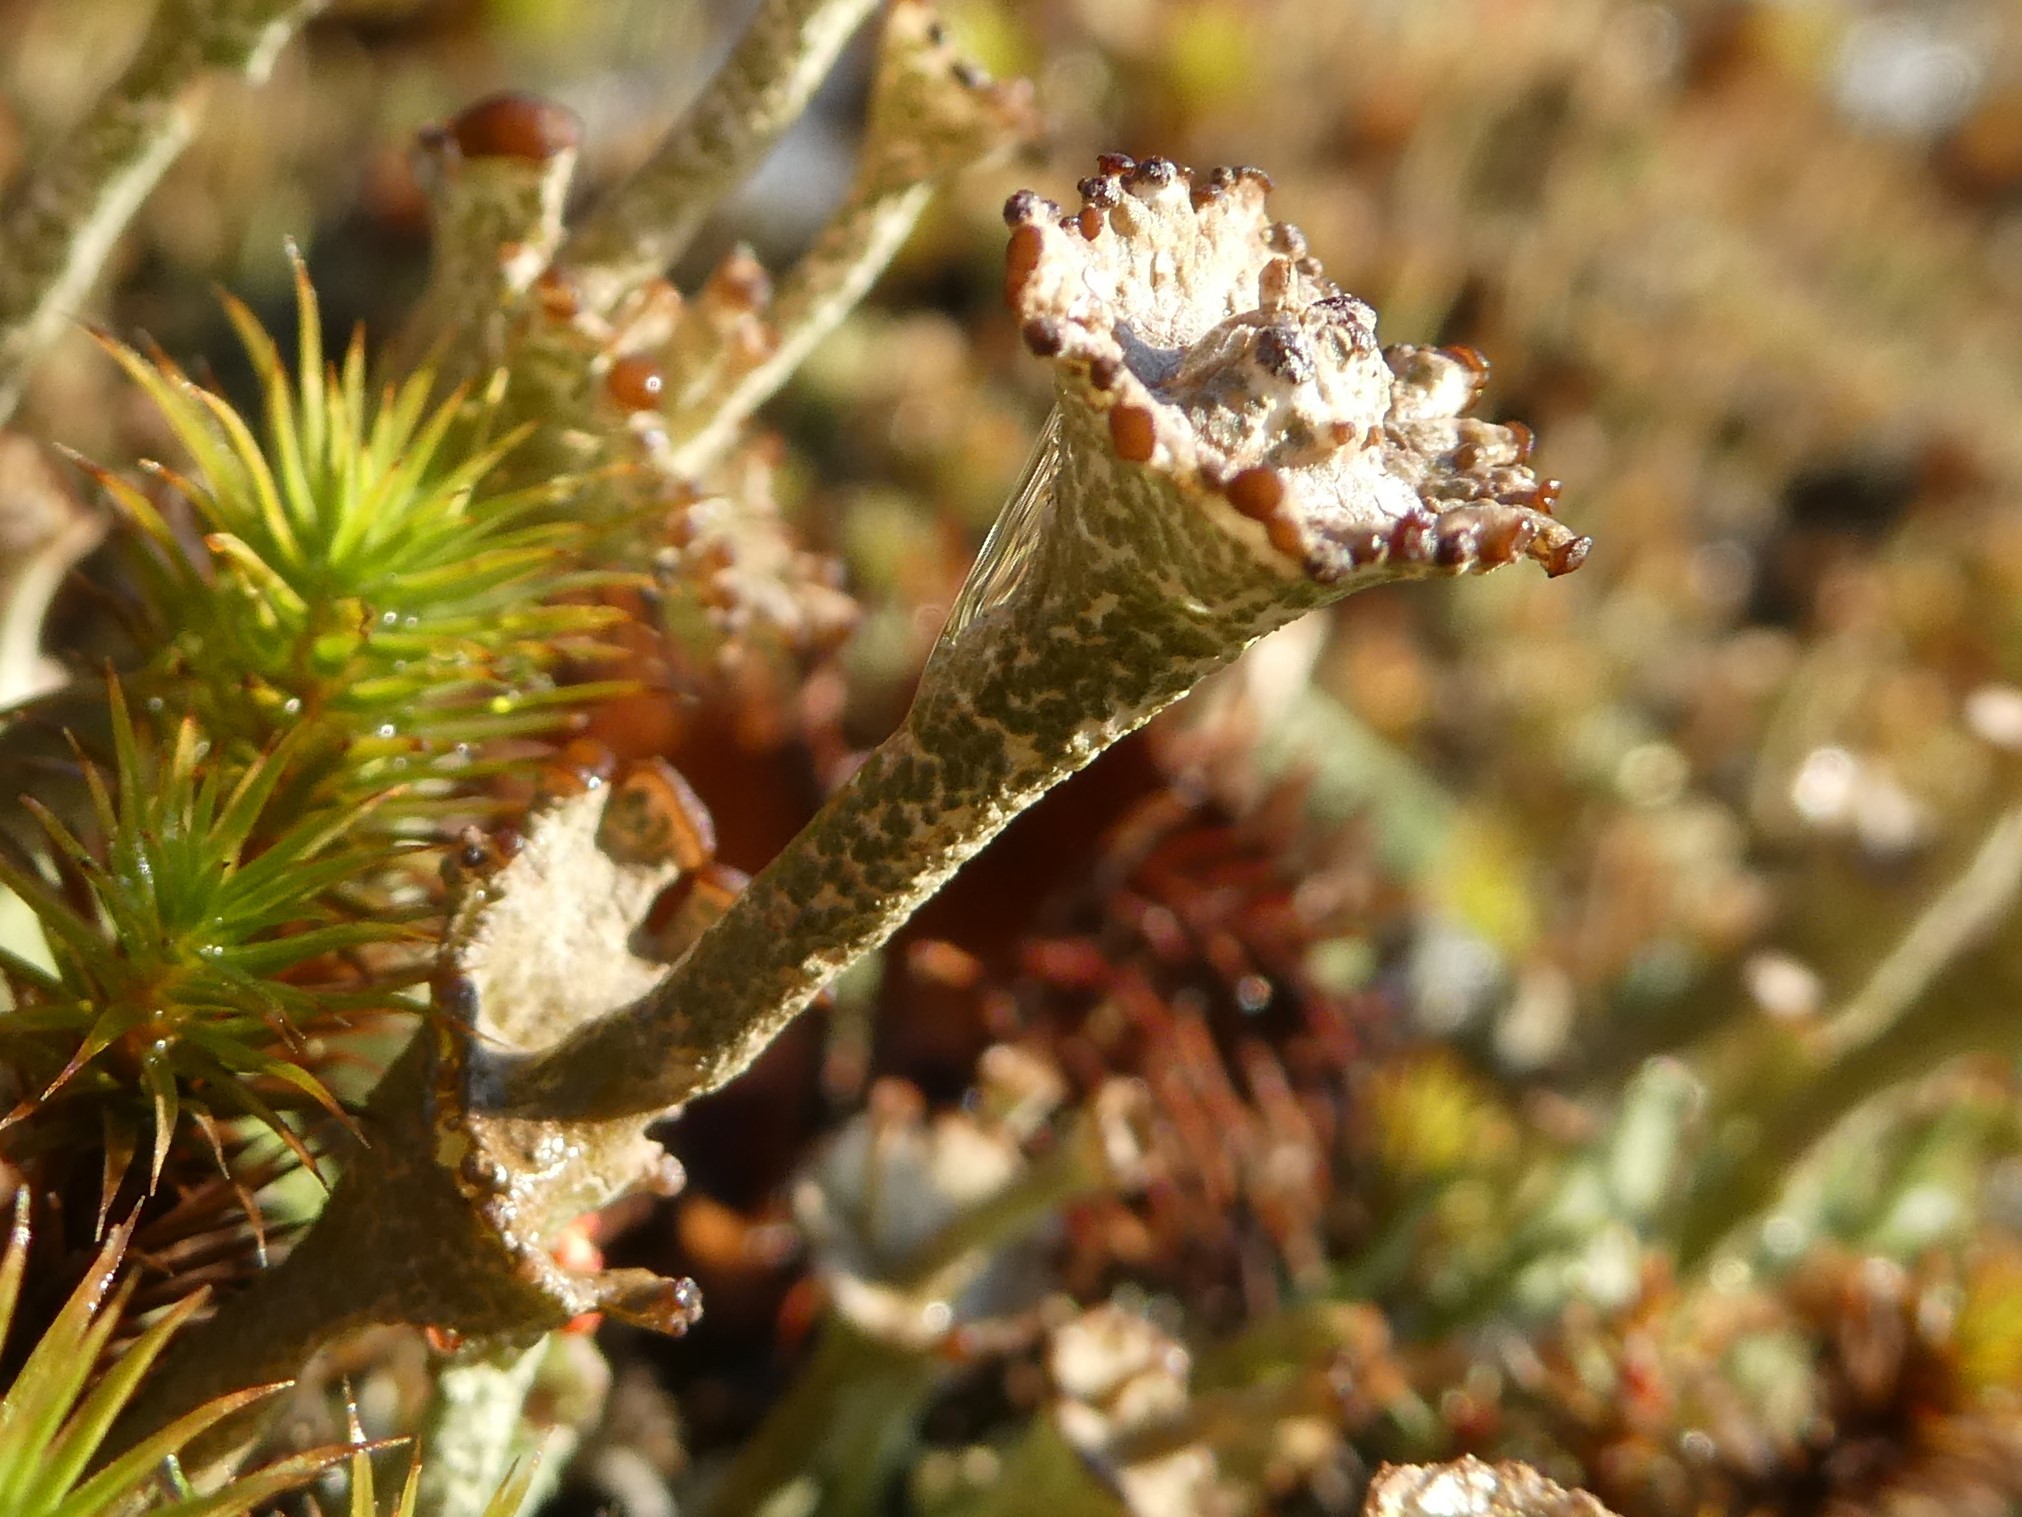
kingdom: Fungi
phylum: Ascomycota
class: Lecanoromycetes
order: Lecanorales
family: Cladoniaceae
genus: Cladonia
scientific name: Cladonia cervicornis
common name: Browned pixie-cup lichen
